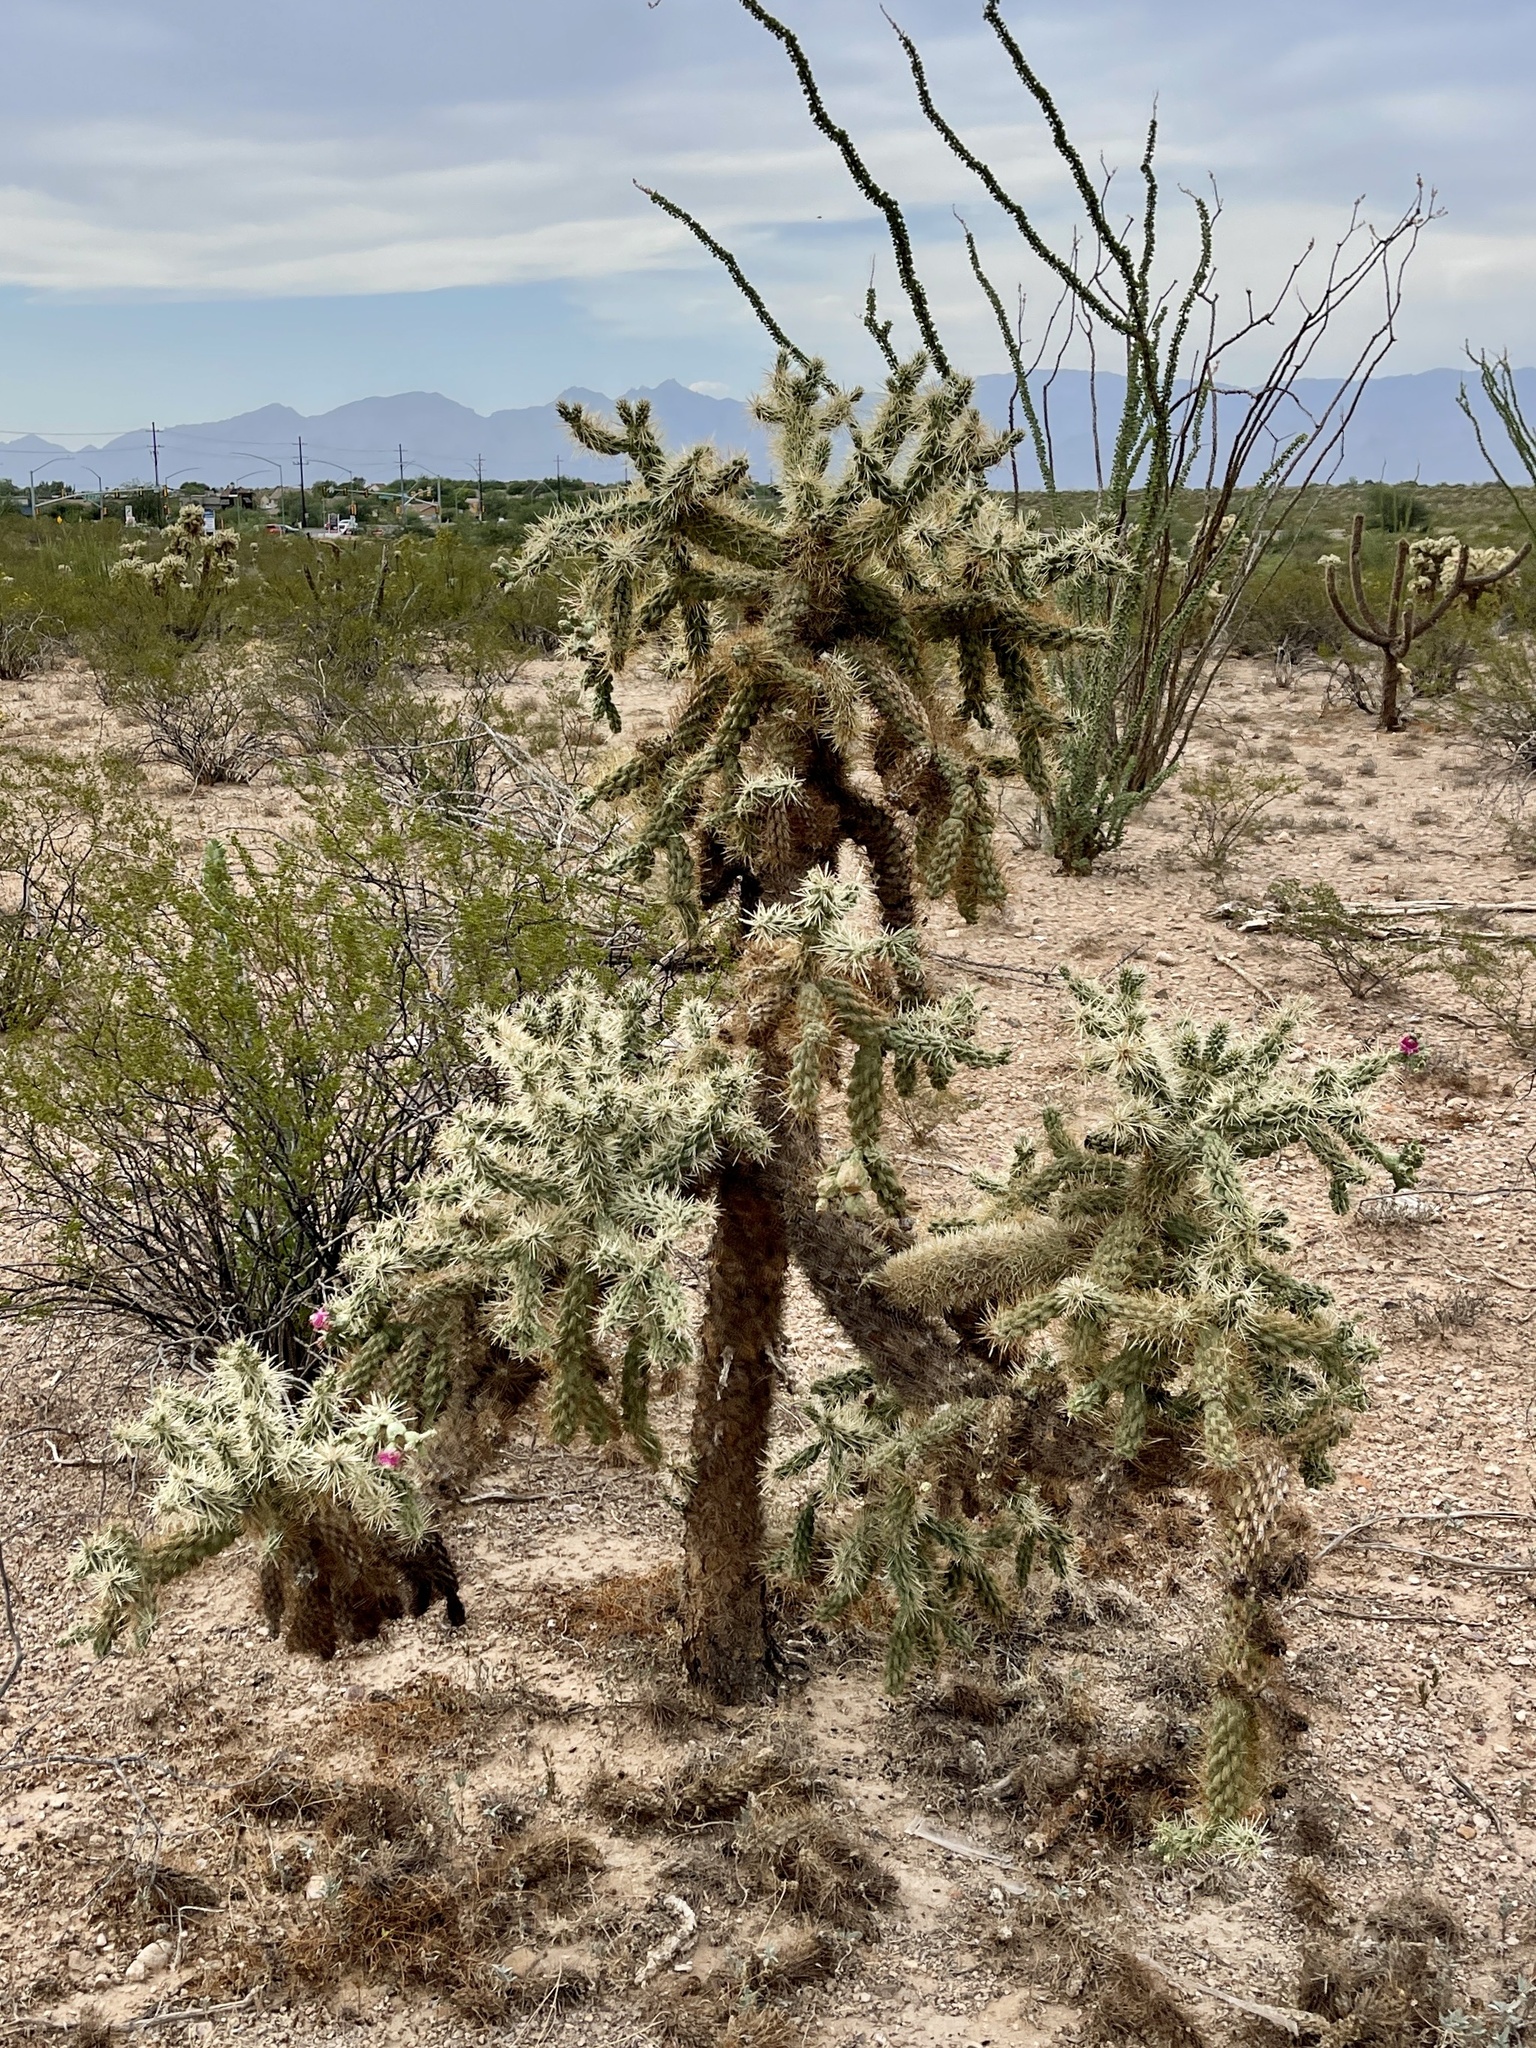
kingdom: Plantae
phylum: Tracheophyta
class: Magnoliopsida
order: Caryophyllales
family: Cactaceae
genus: Cylindropuntia
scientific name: Cylindropuntia fulgida
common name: Jumping cholla
